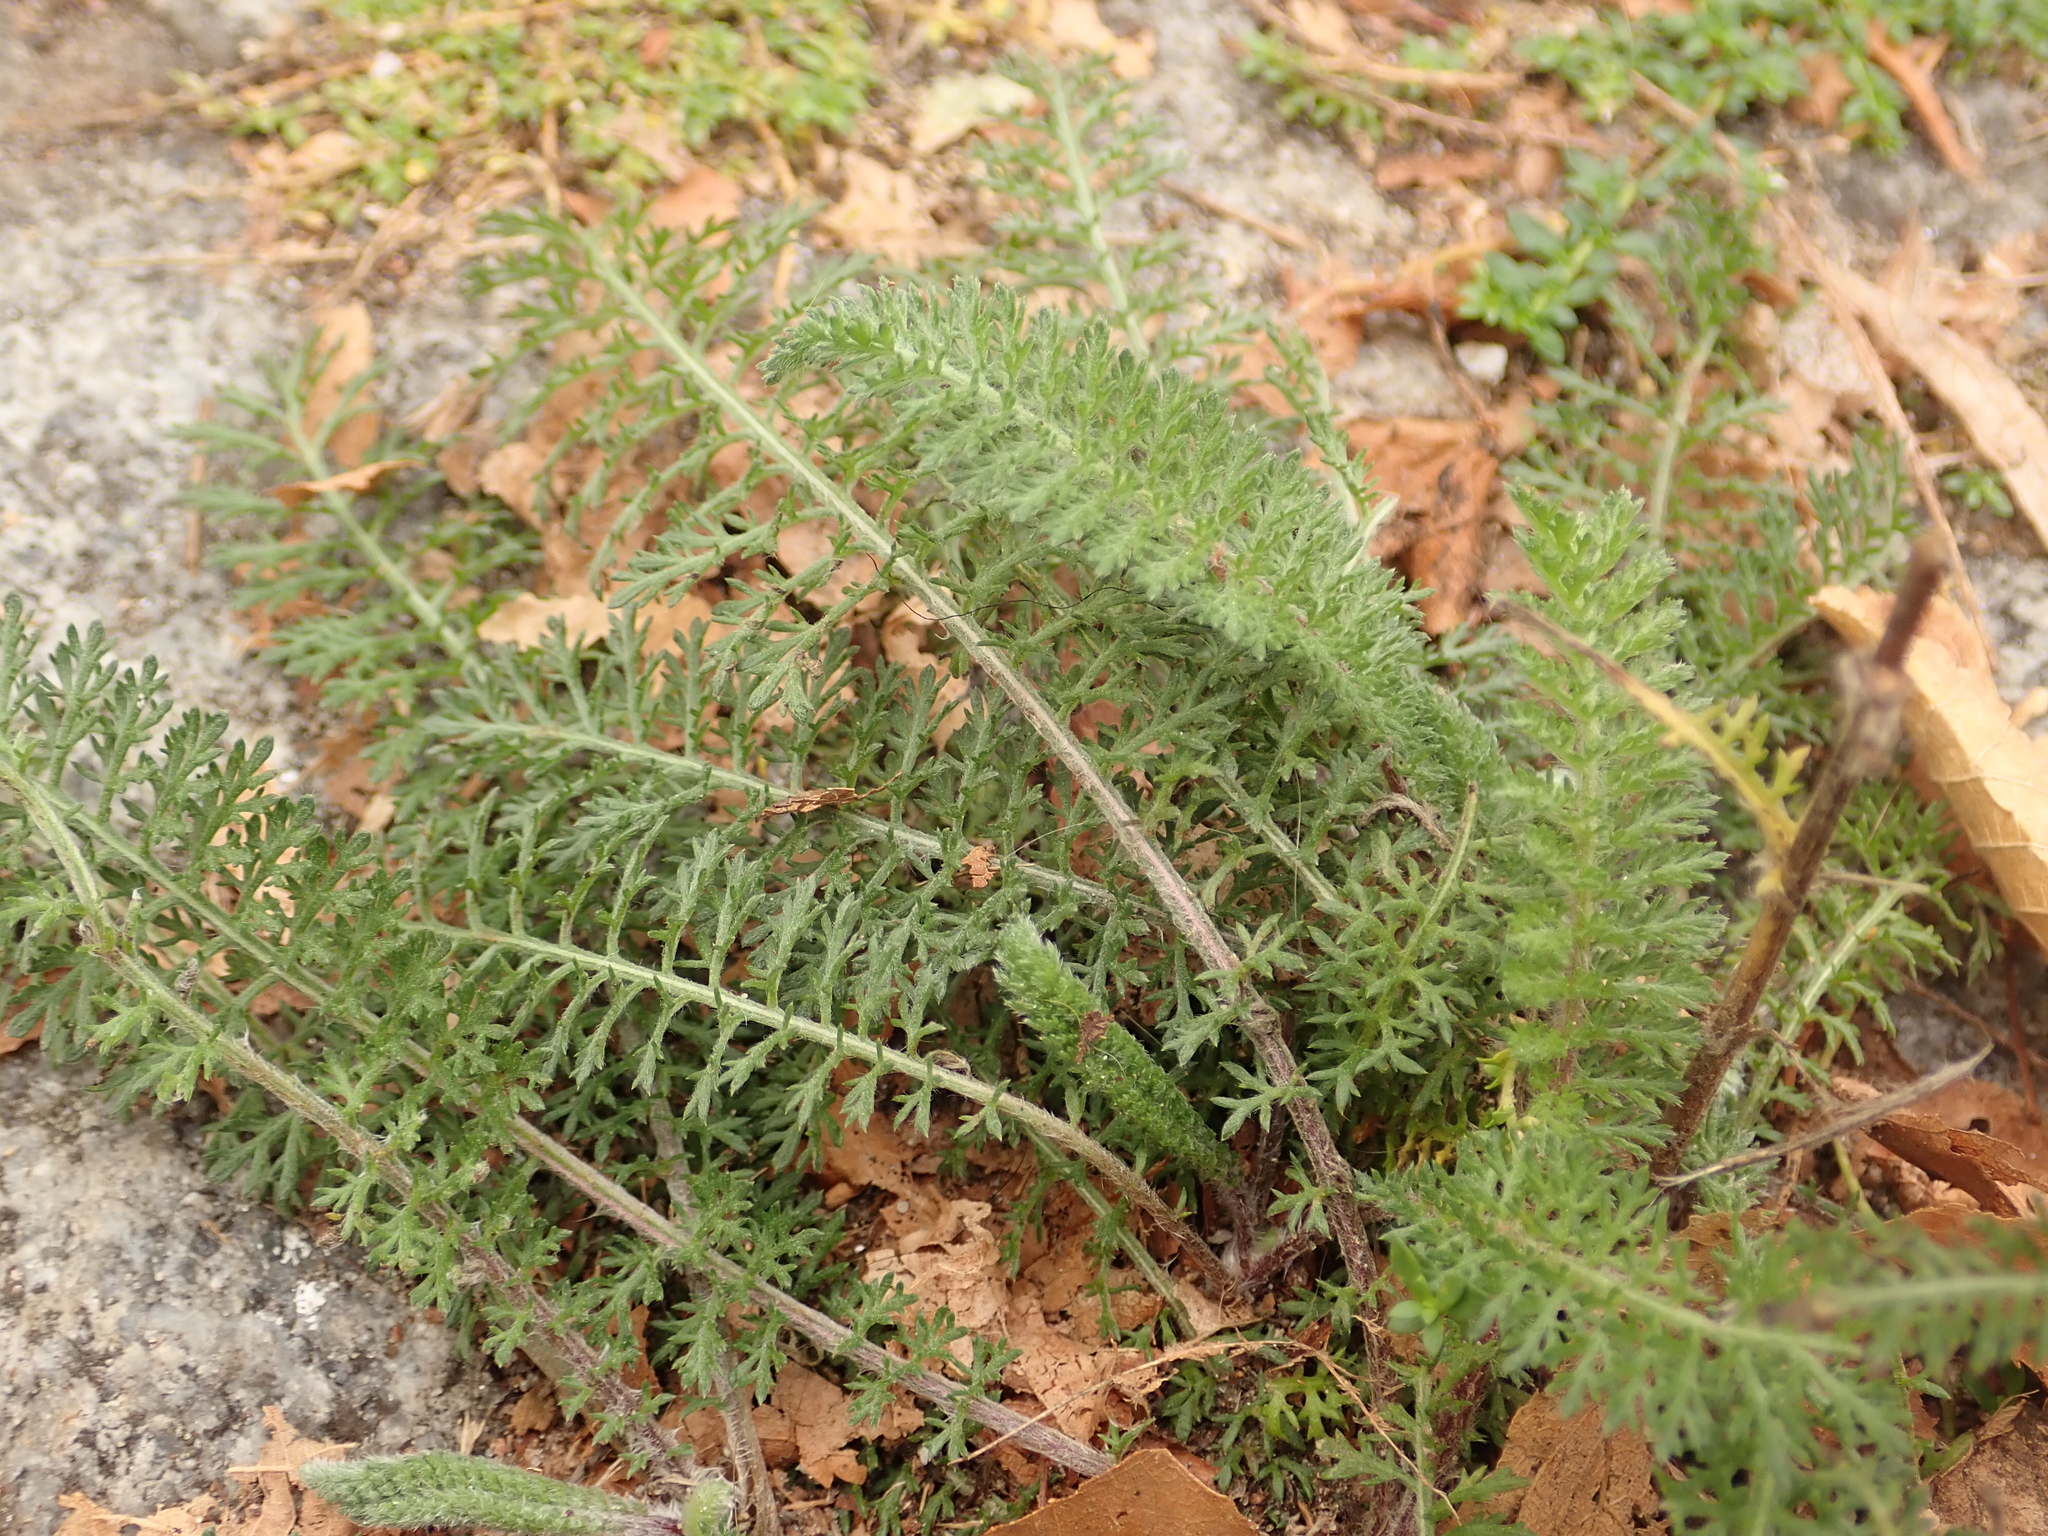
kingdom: Plantae
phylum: Tracheophyta
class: Magnoliopsida
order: Asterales
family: Asteraceae
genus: Achillea
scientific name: Achillea millefolium
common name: Yarrow
